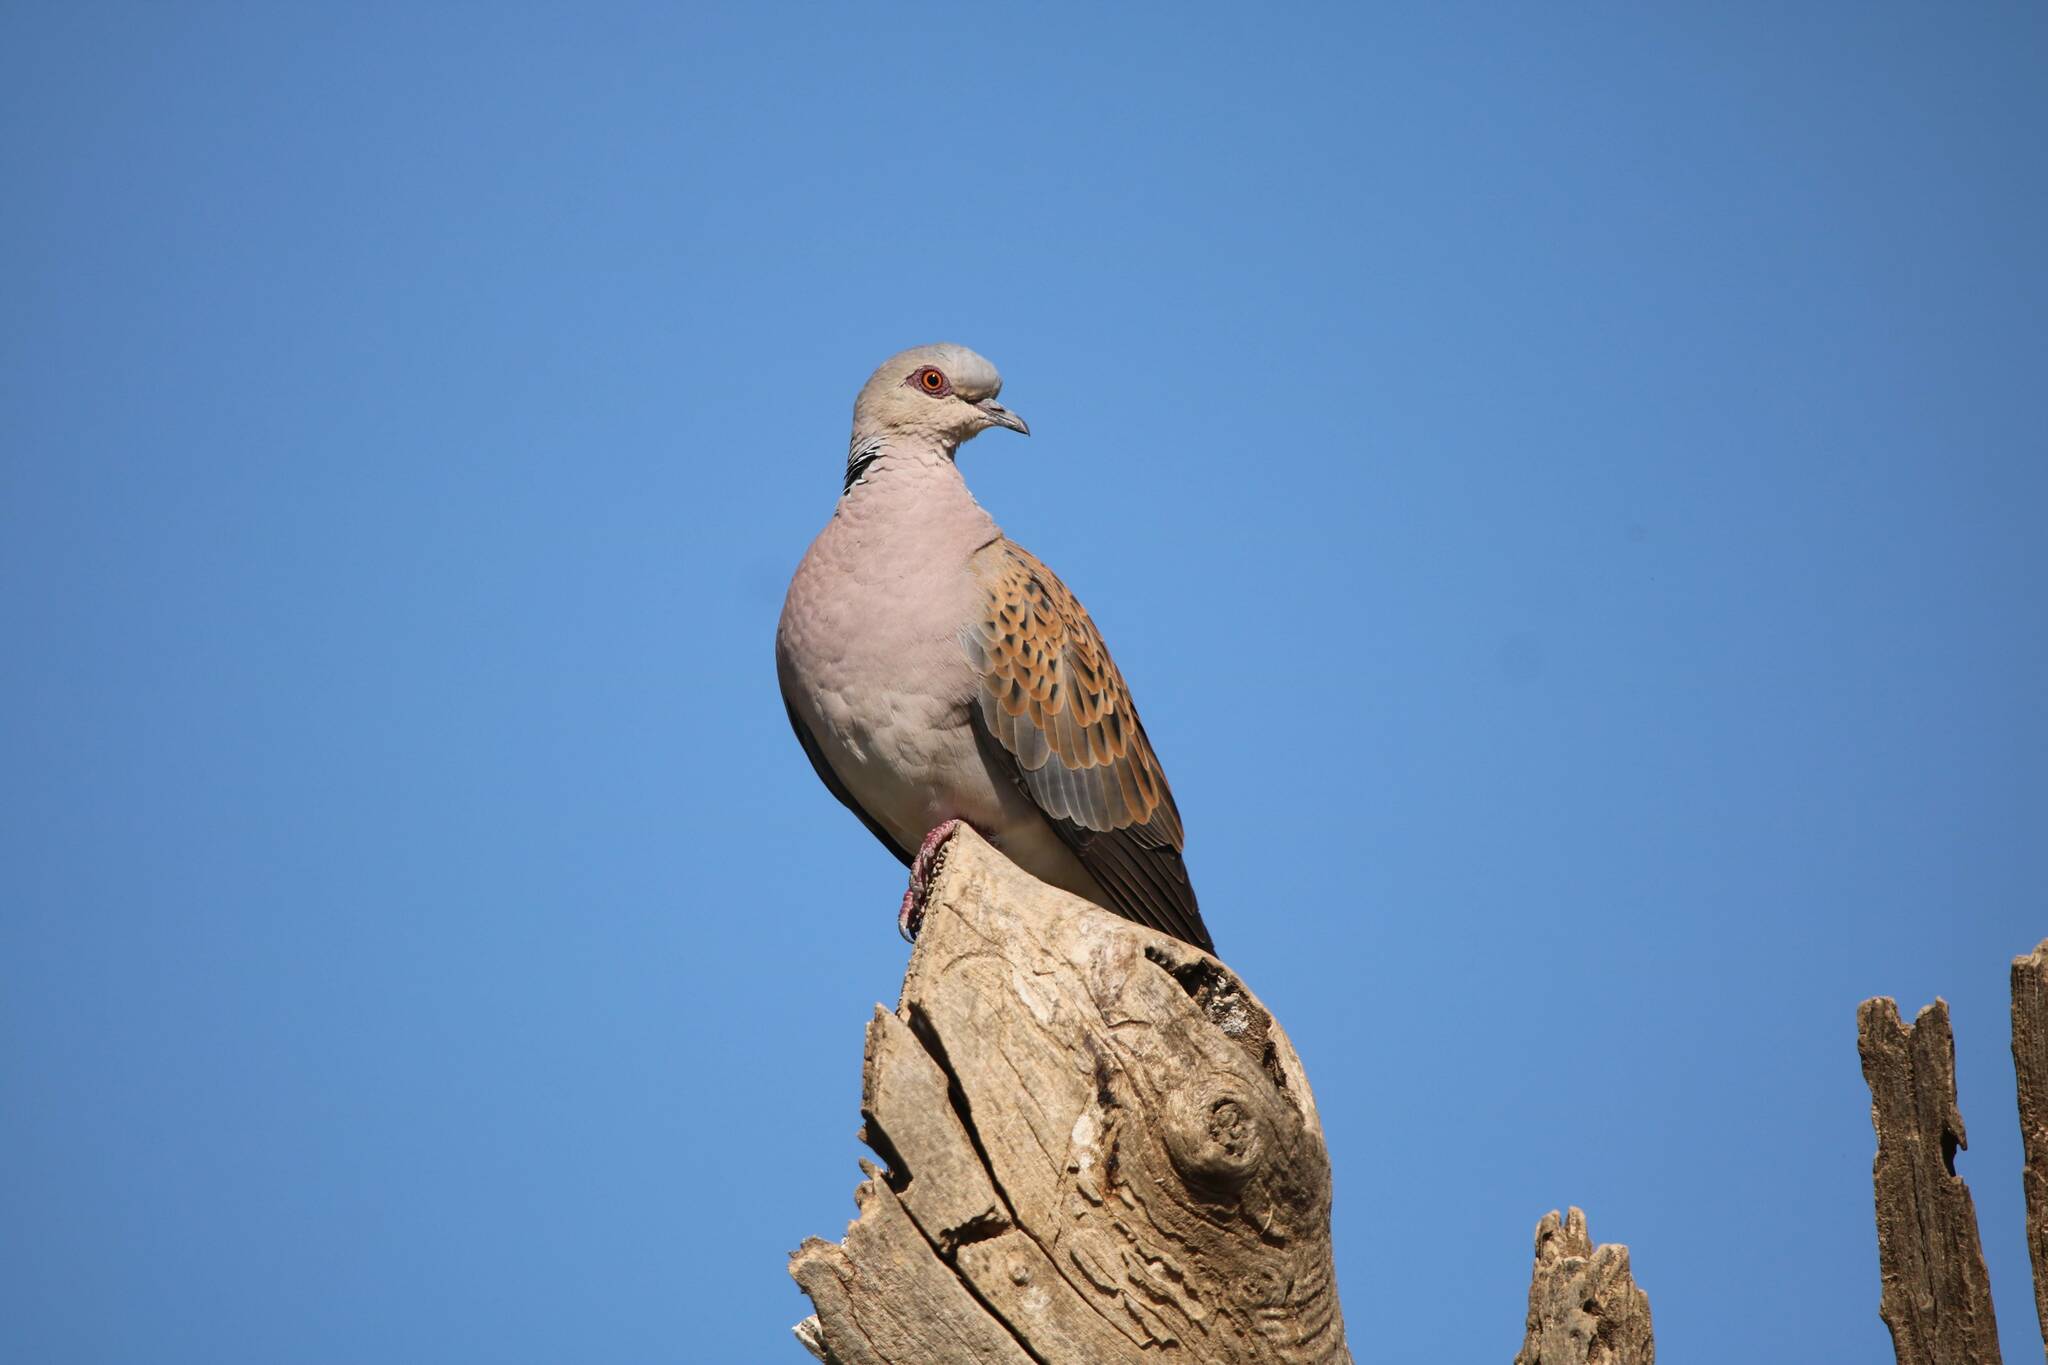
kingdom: Animalia
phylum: Chordata
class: Aves
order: Columbiformes
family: Columbidae
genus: Streptopelia
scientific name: Streptopelia turtur
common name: European turtle dove
